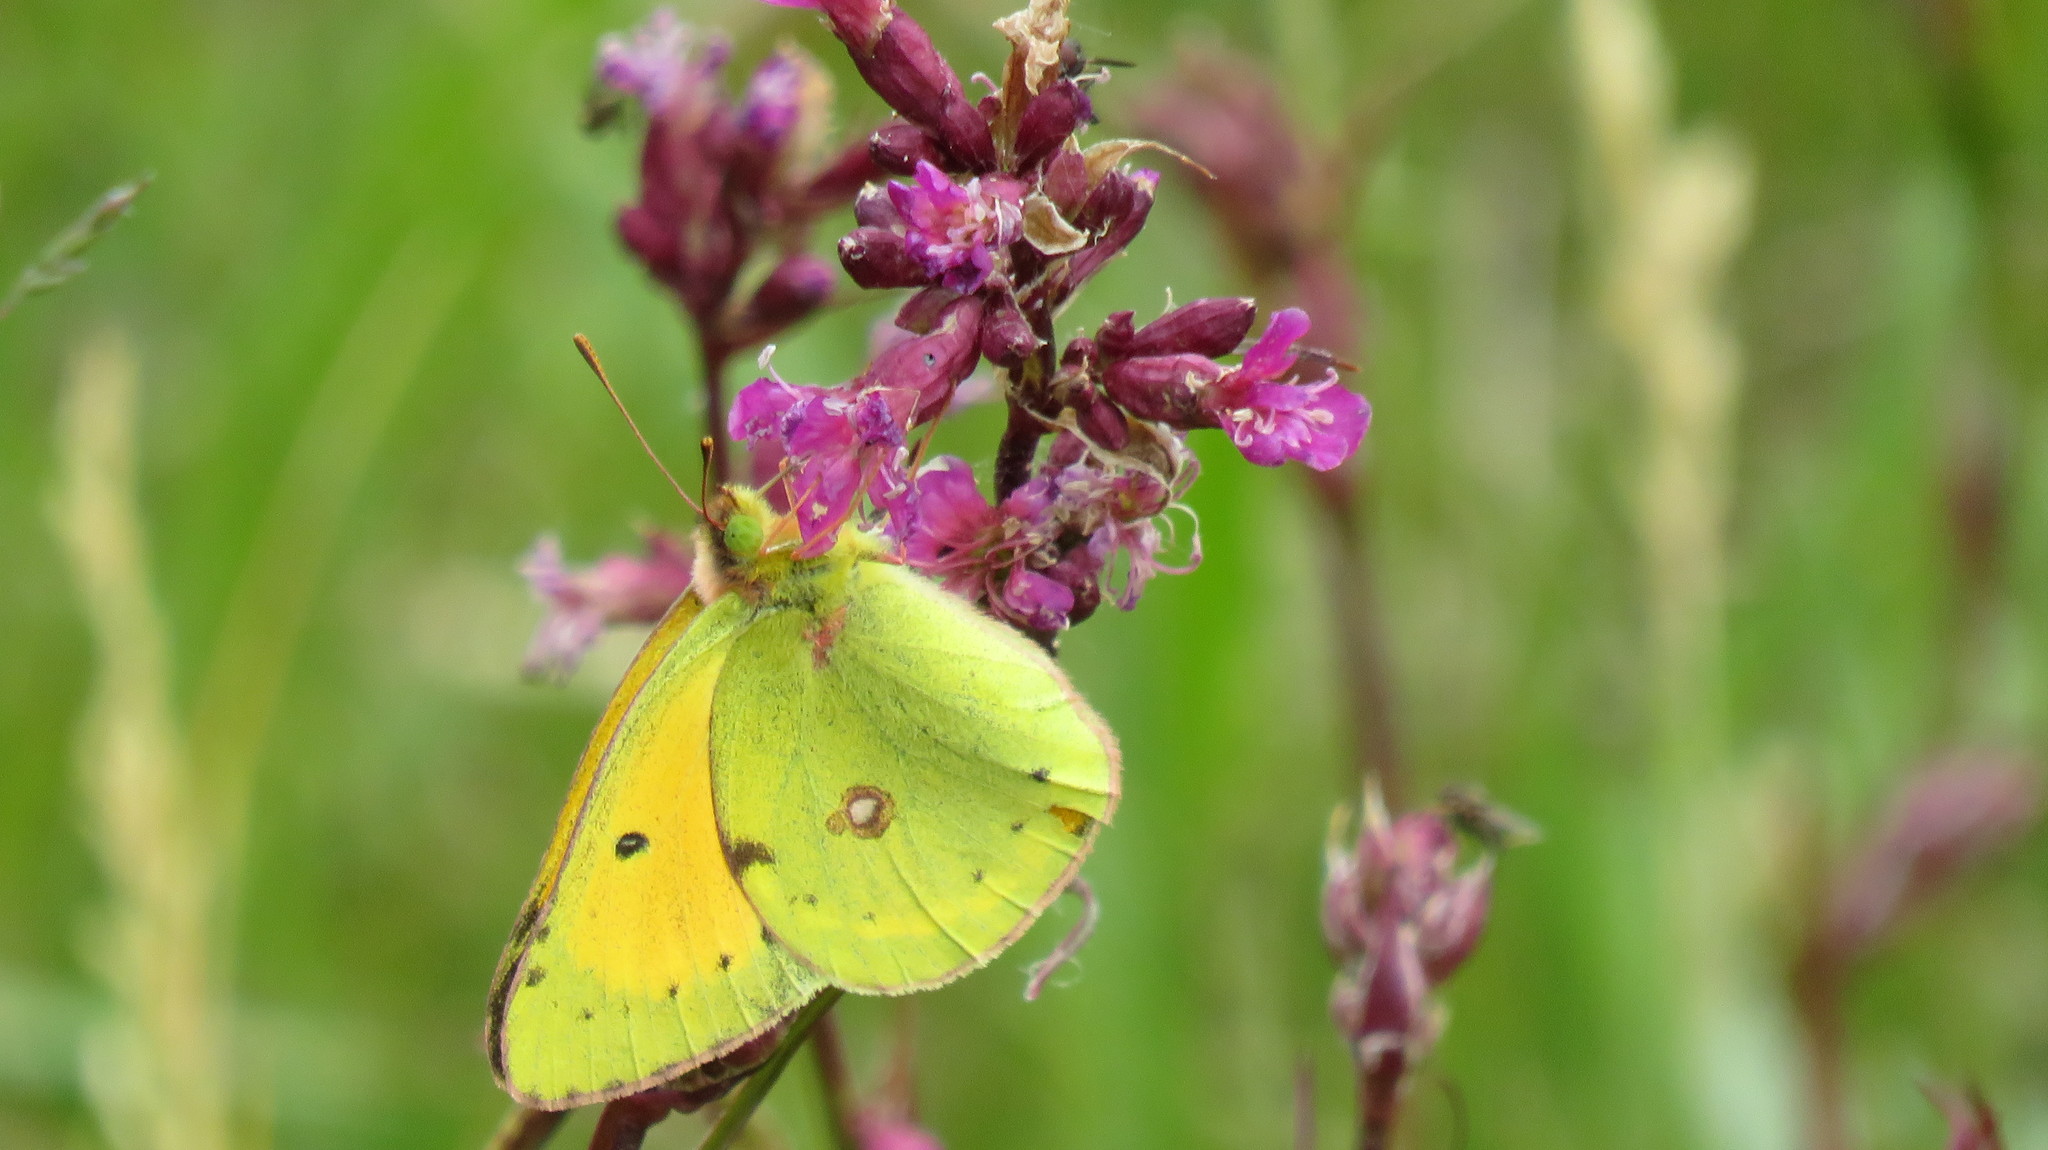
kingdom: Animalia
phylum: Arthropoda
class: Insecta
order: Lepidoptera
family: Pieridae
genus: Colias
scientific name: Colias myrmidone
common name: Danube clouded yellow
